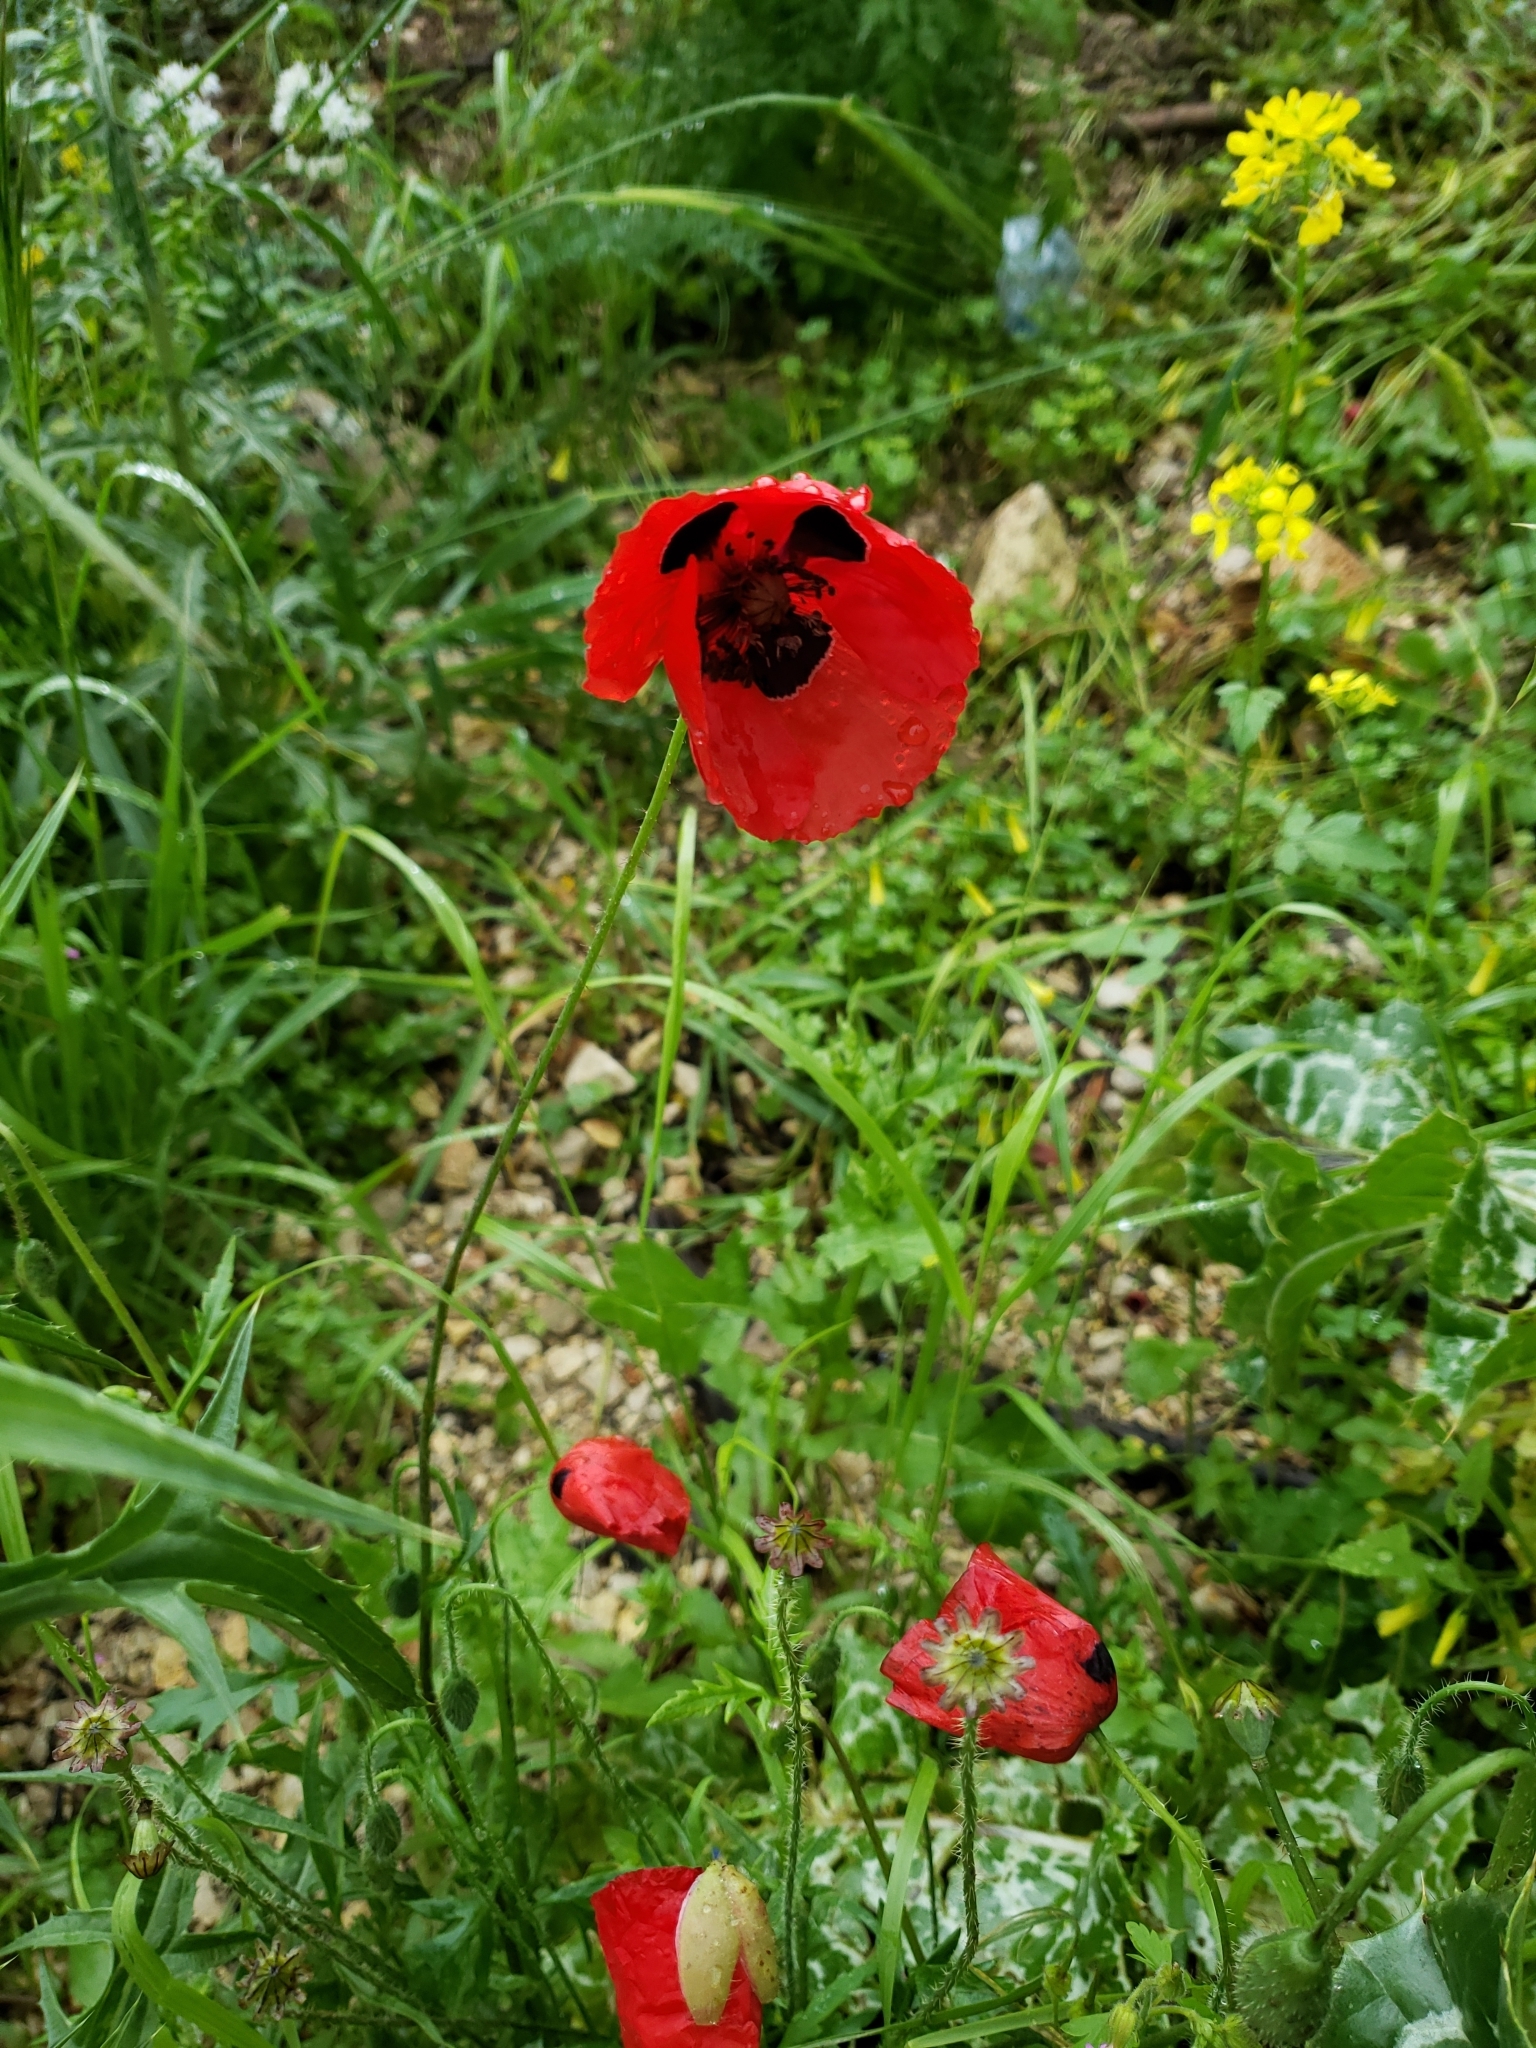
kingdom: Plantae
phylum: Tracheophyta
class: Magnoliopsida
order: Ranunculales
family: Papaveraceae
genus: Papaver
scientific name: Papaver carmeli
